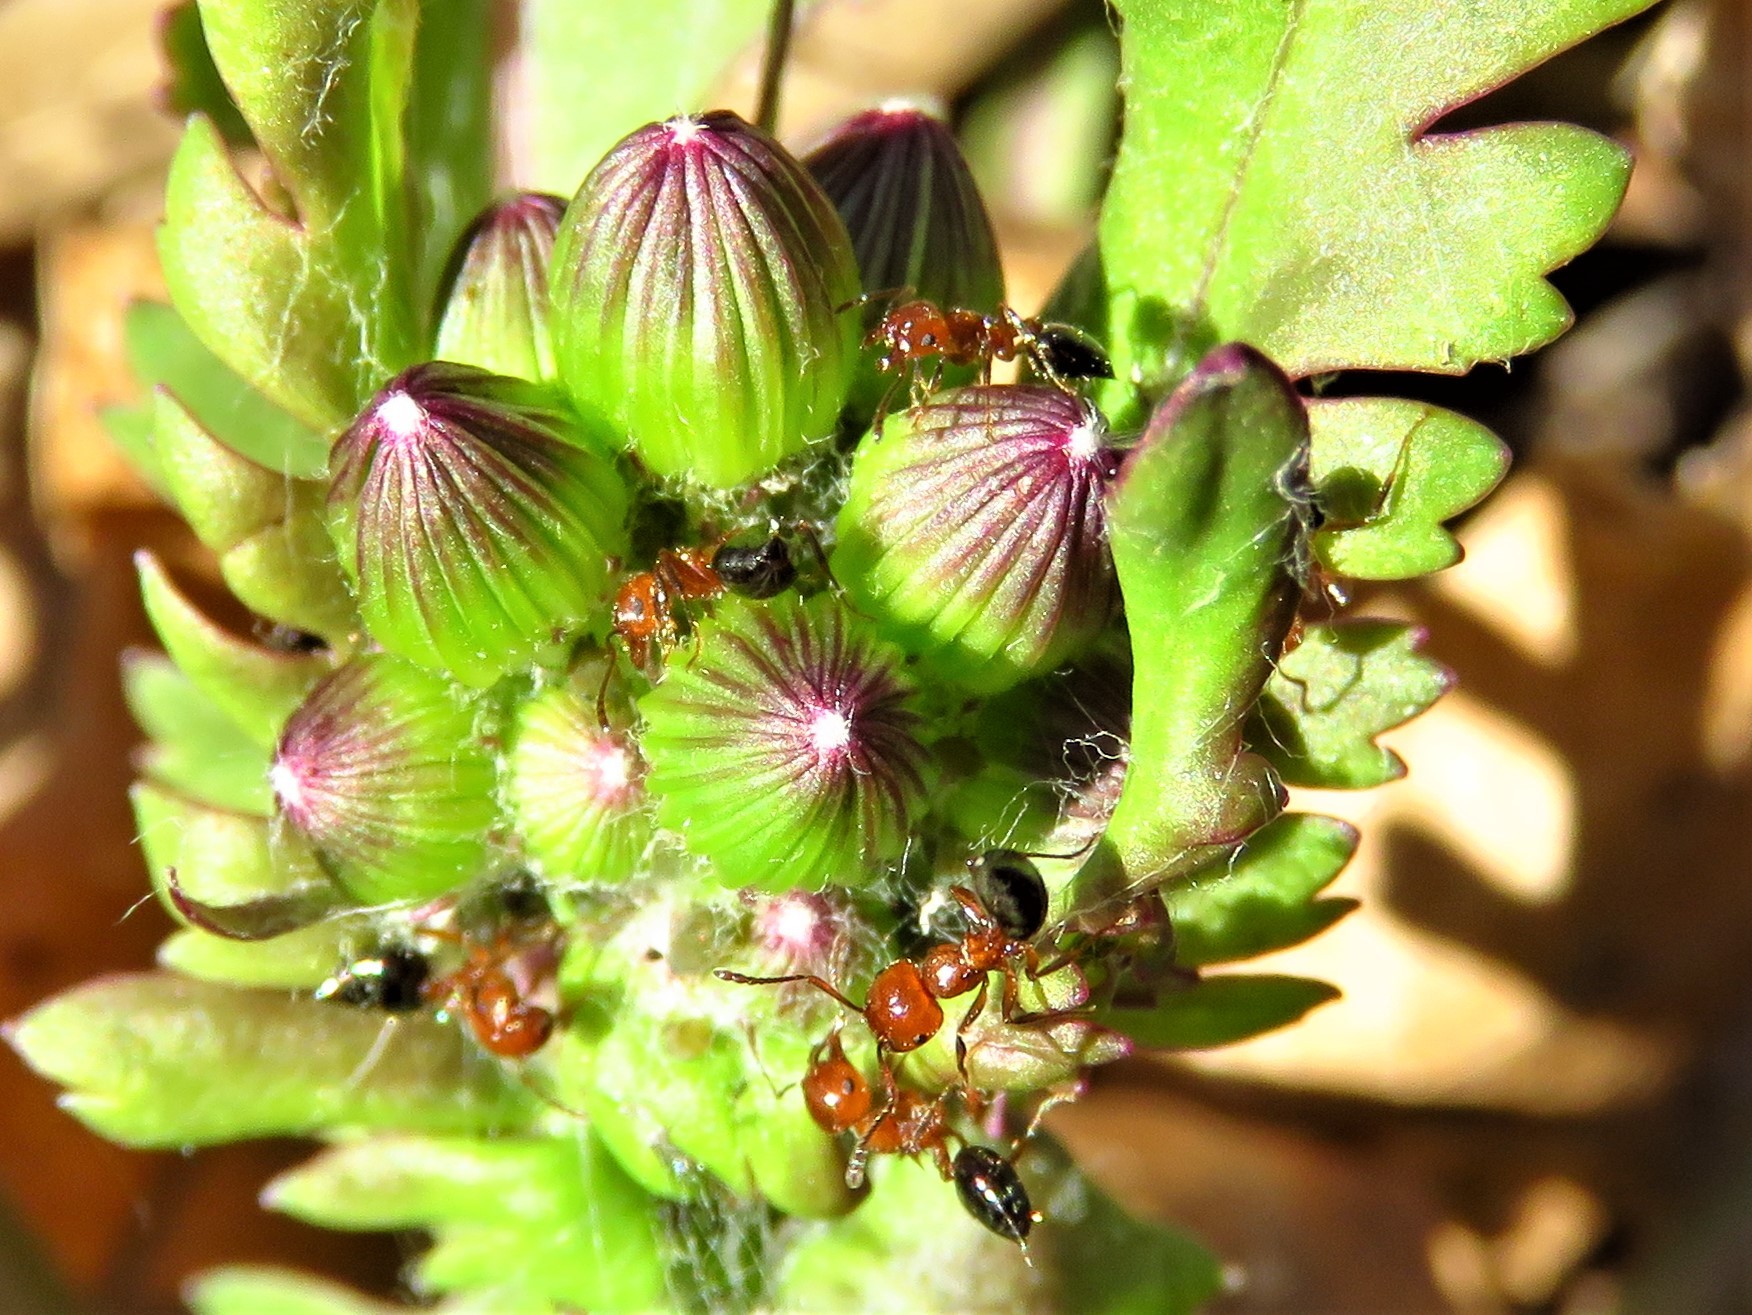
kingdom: Animalia
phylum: Arthropoda
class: Insecta
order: Hymenoptera
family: Formicidae
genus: Crematogaster
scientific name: Crematogaster laeviuscula
